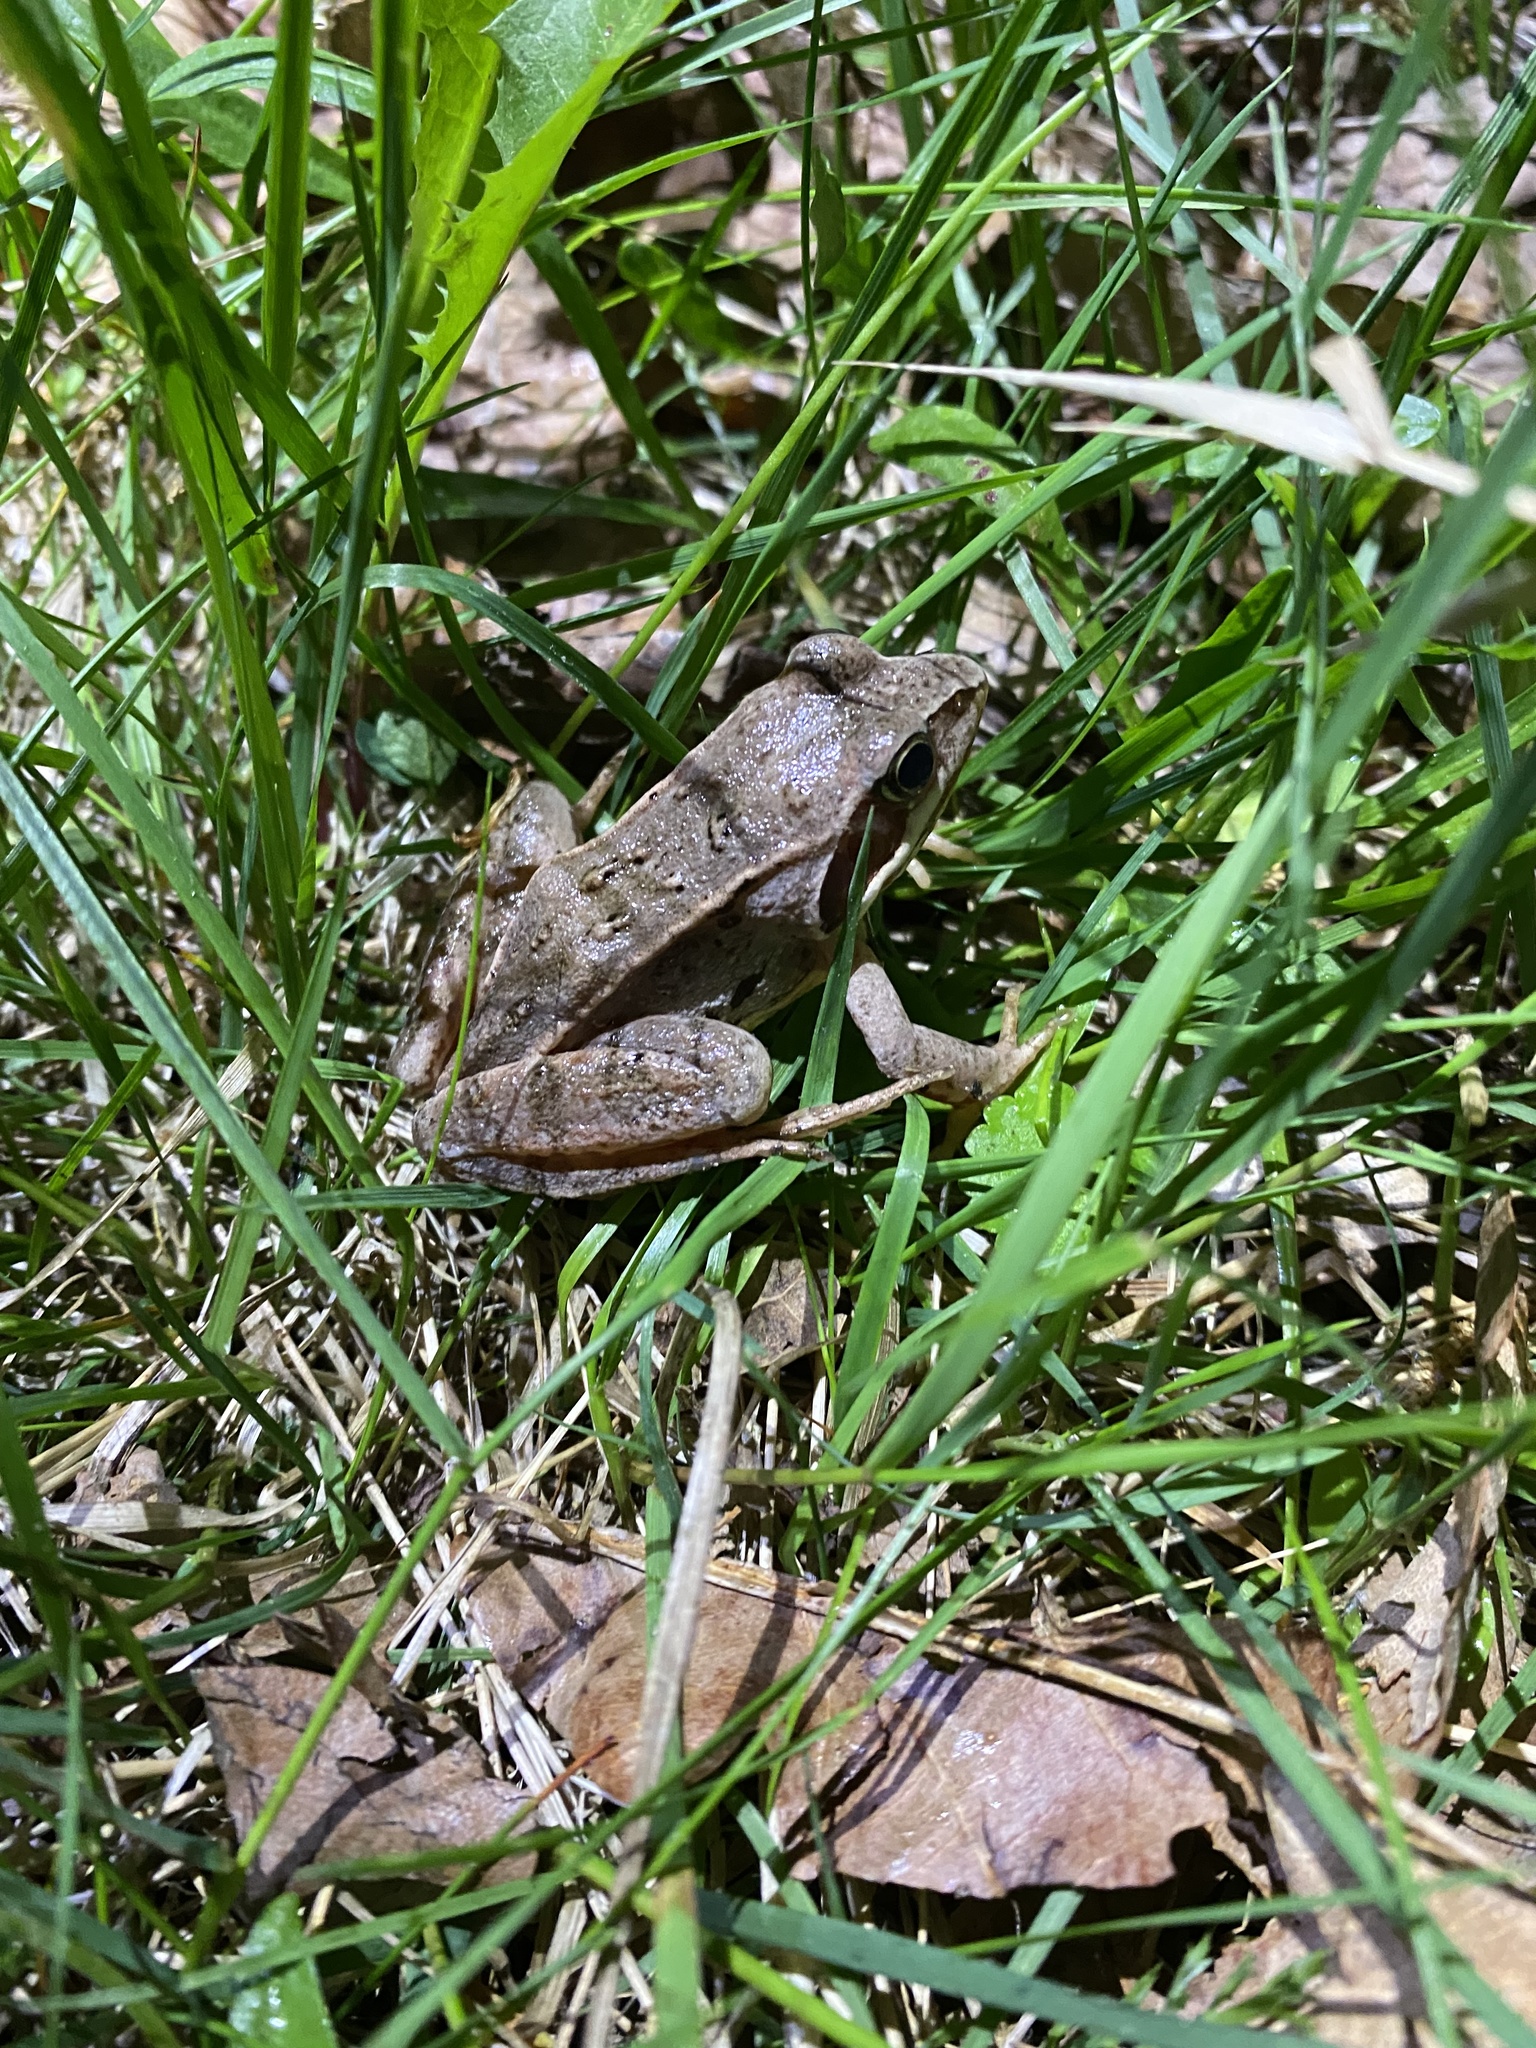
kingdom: Animalia
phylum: Chordata
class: Amphibia
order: Anura
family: Ranidae
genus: Rana
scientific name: Rana arvalis
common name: Moor frog
